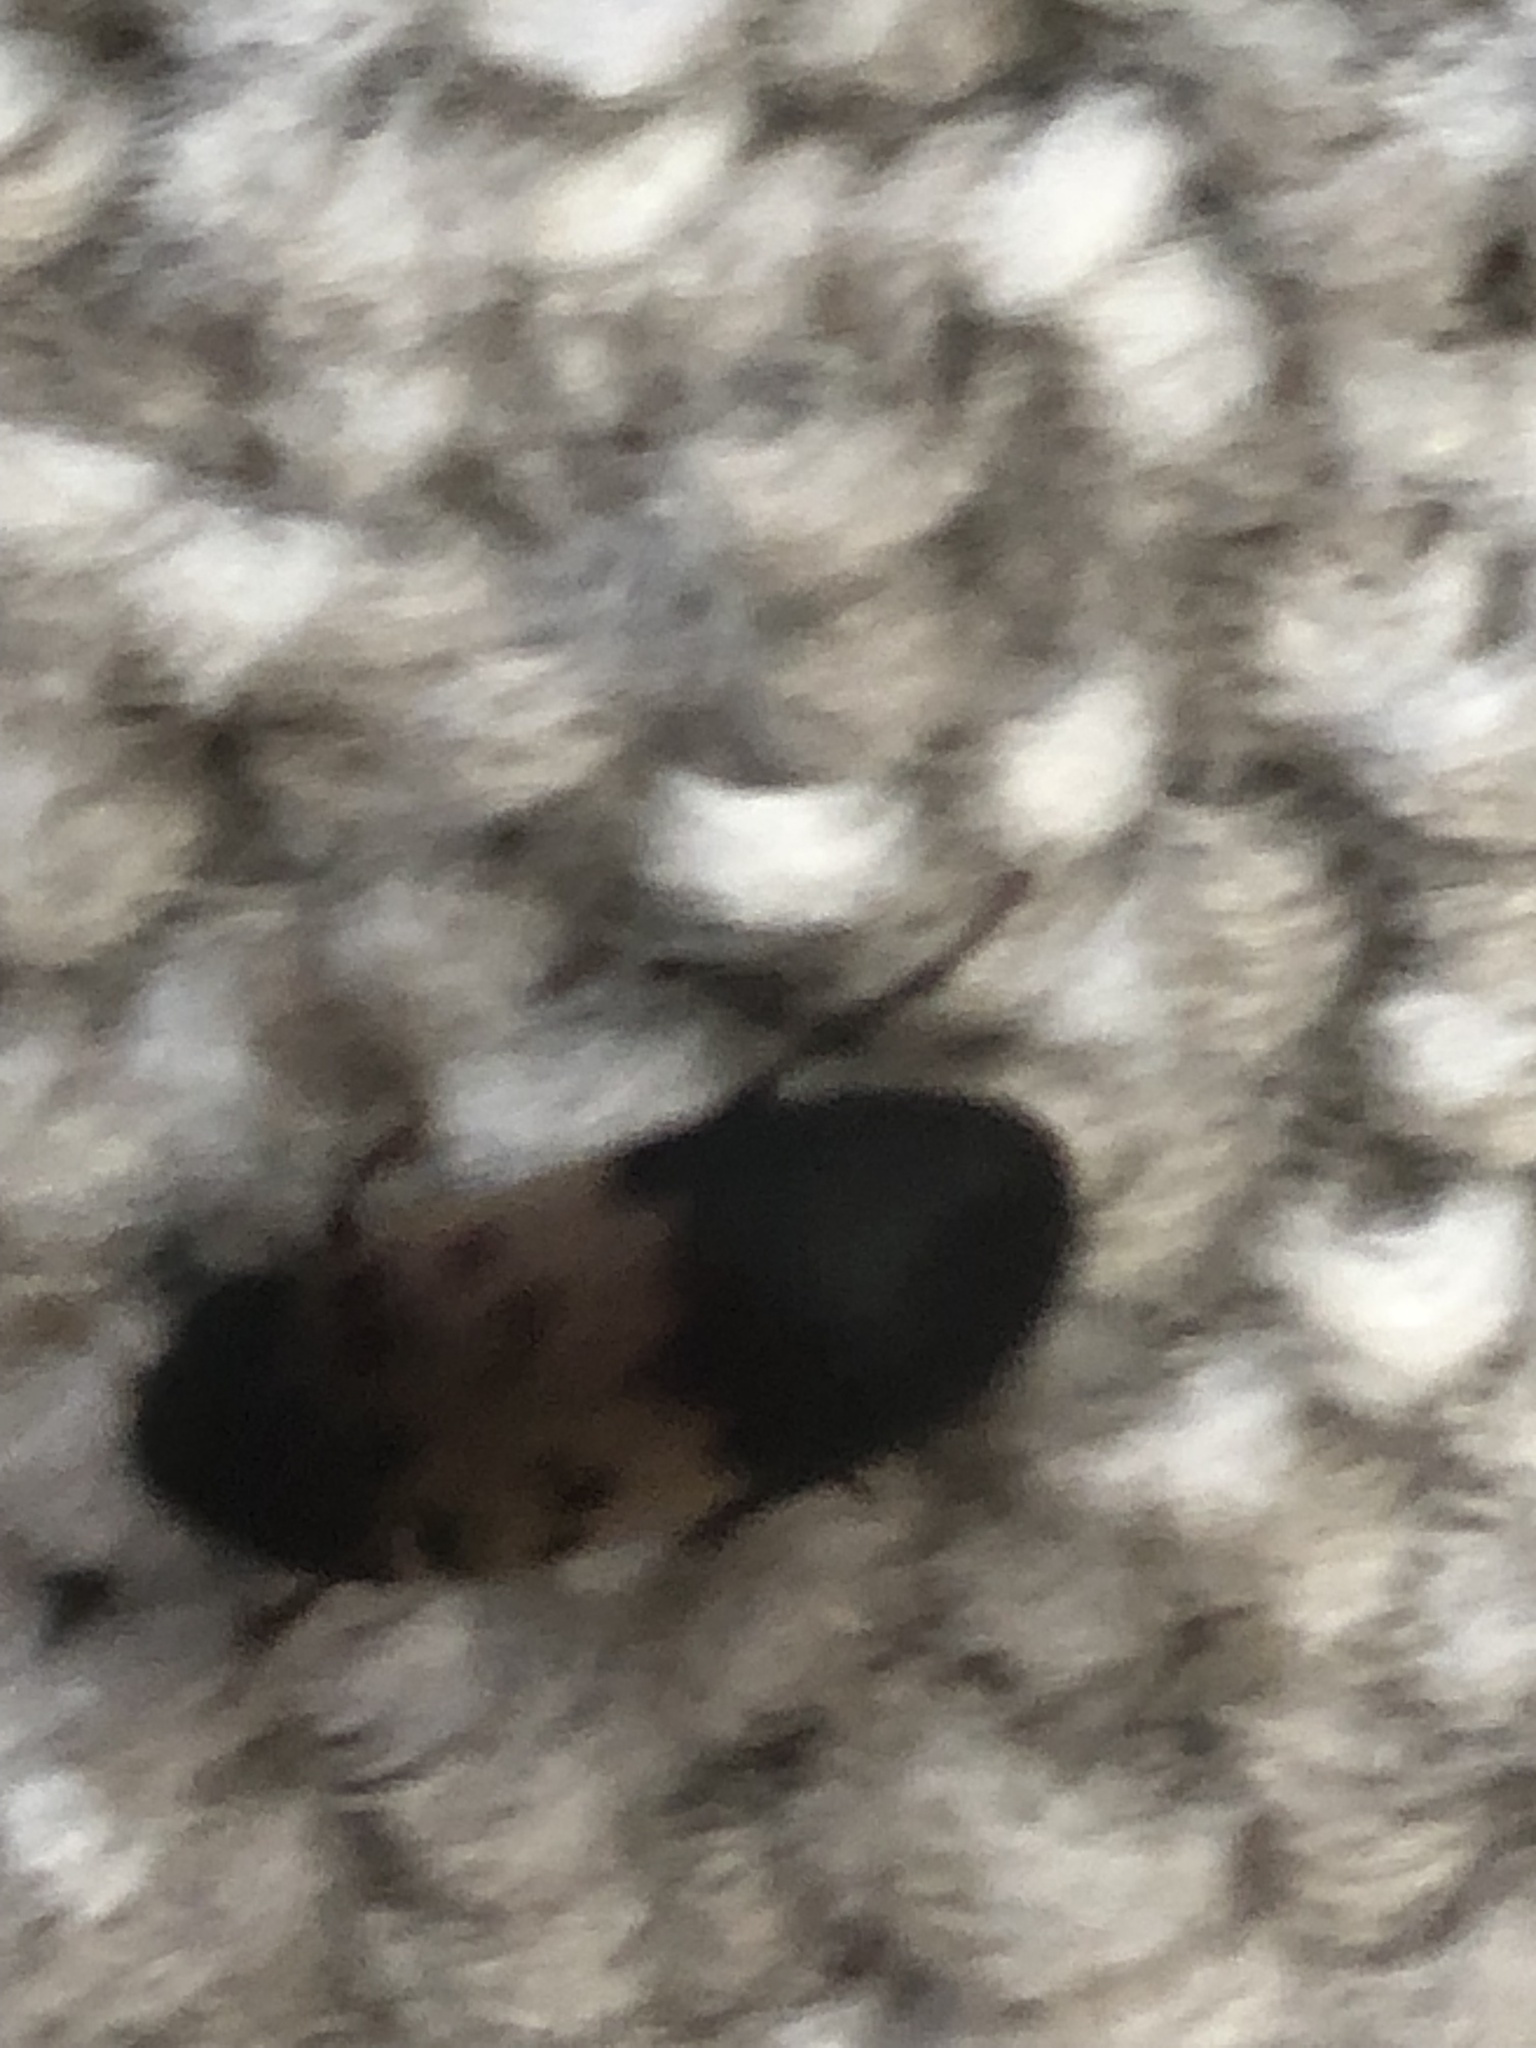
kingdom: Animalia
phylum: Arthropoda
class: Insecta
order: Coleoptera
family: Dermestidae
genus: Dermestes
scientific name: Dermestes lardarius
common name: Larder beetle
